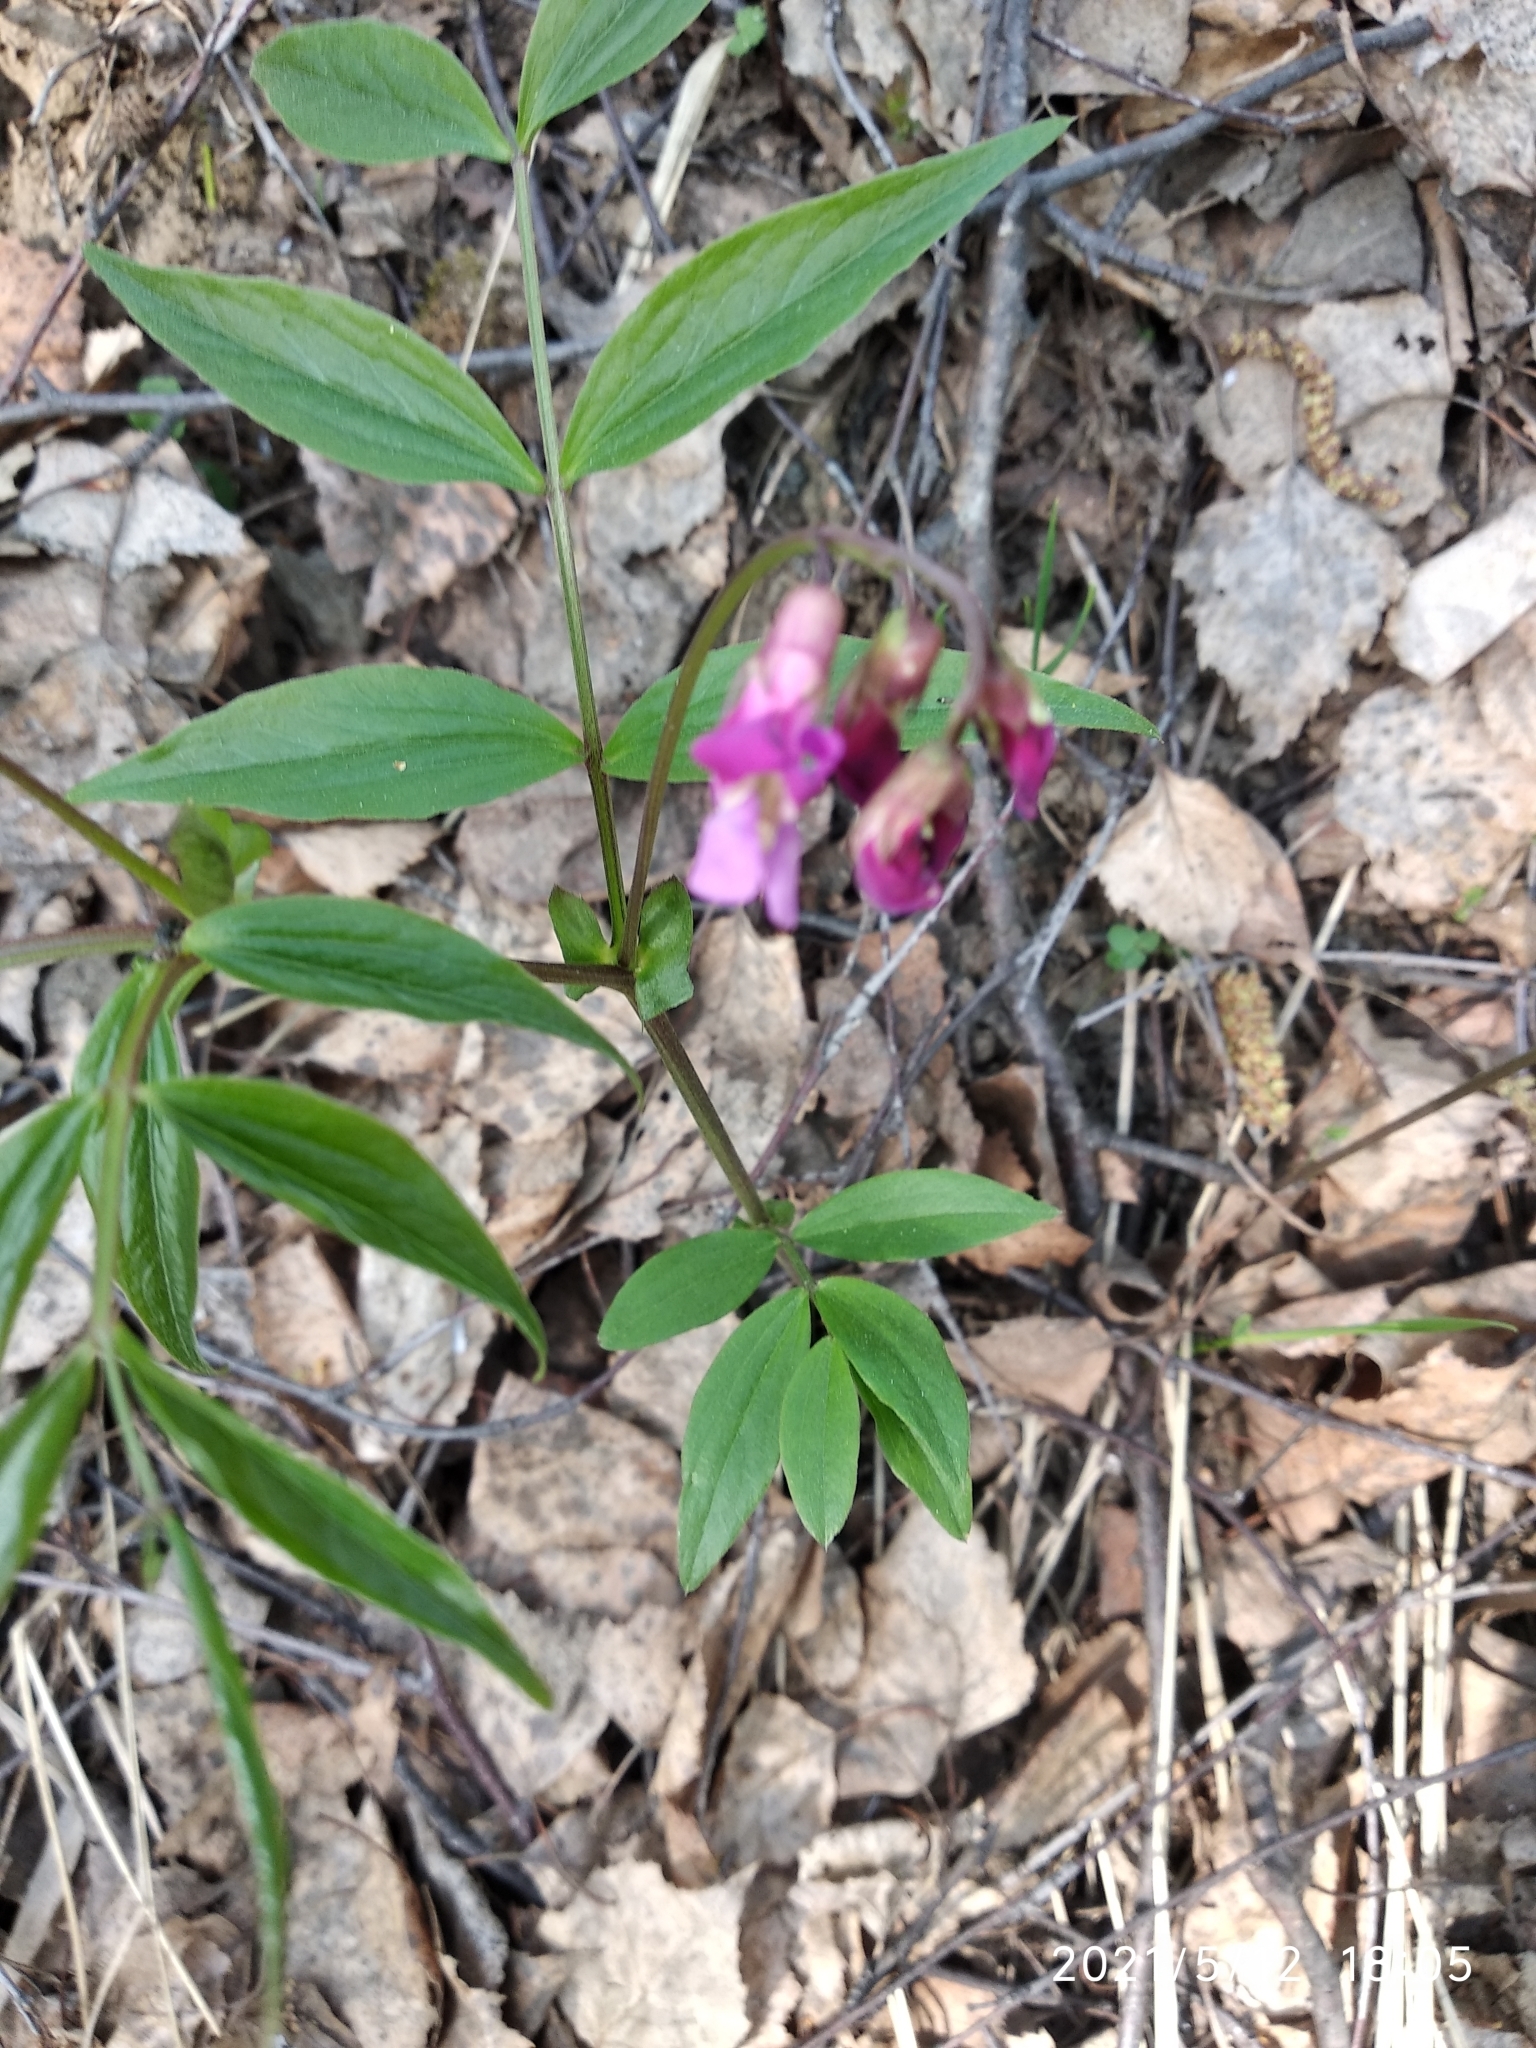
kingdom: Plantae
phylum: Tracheophyta
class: Magnoliopsida
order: Fabales
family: Fabaceae
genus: Lathyrus
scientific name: Lathyrus vernus
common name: Spring pea
